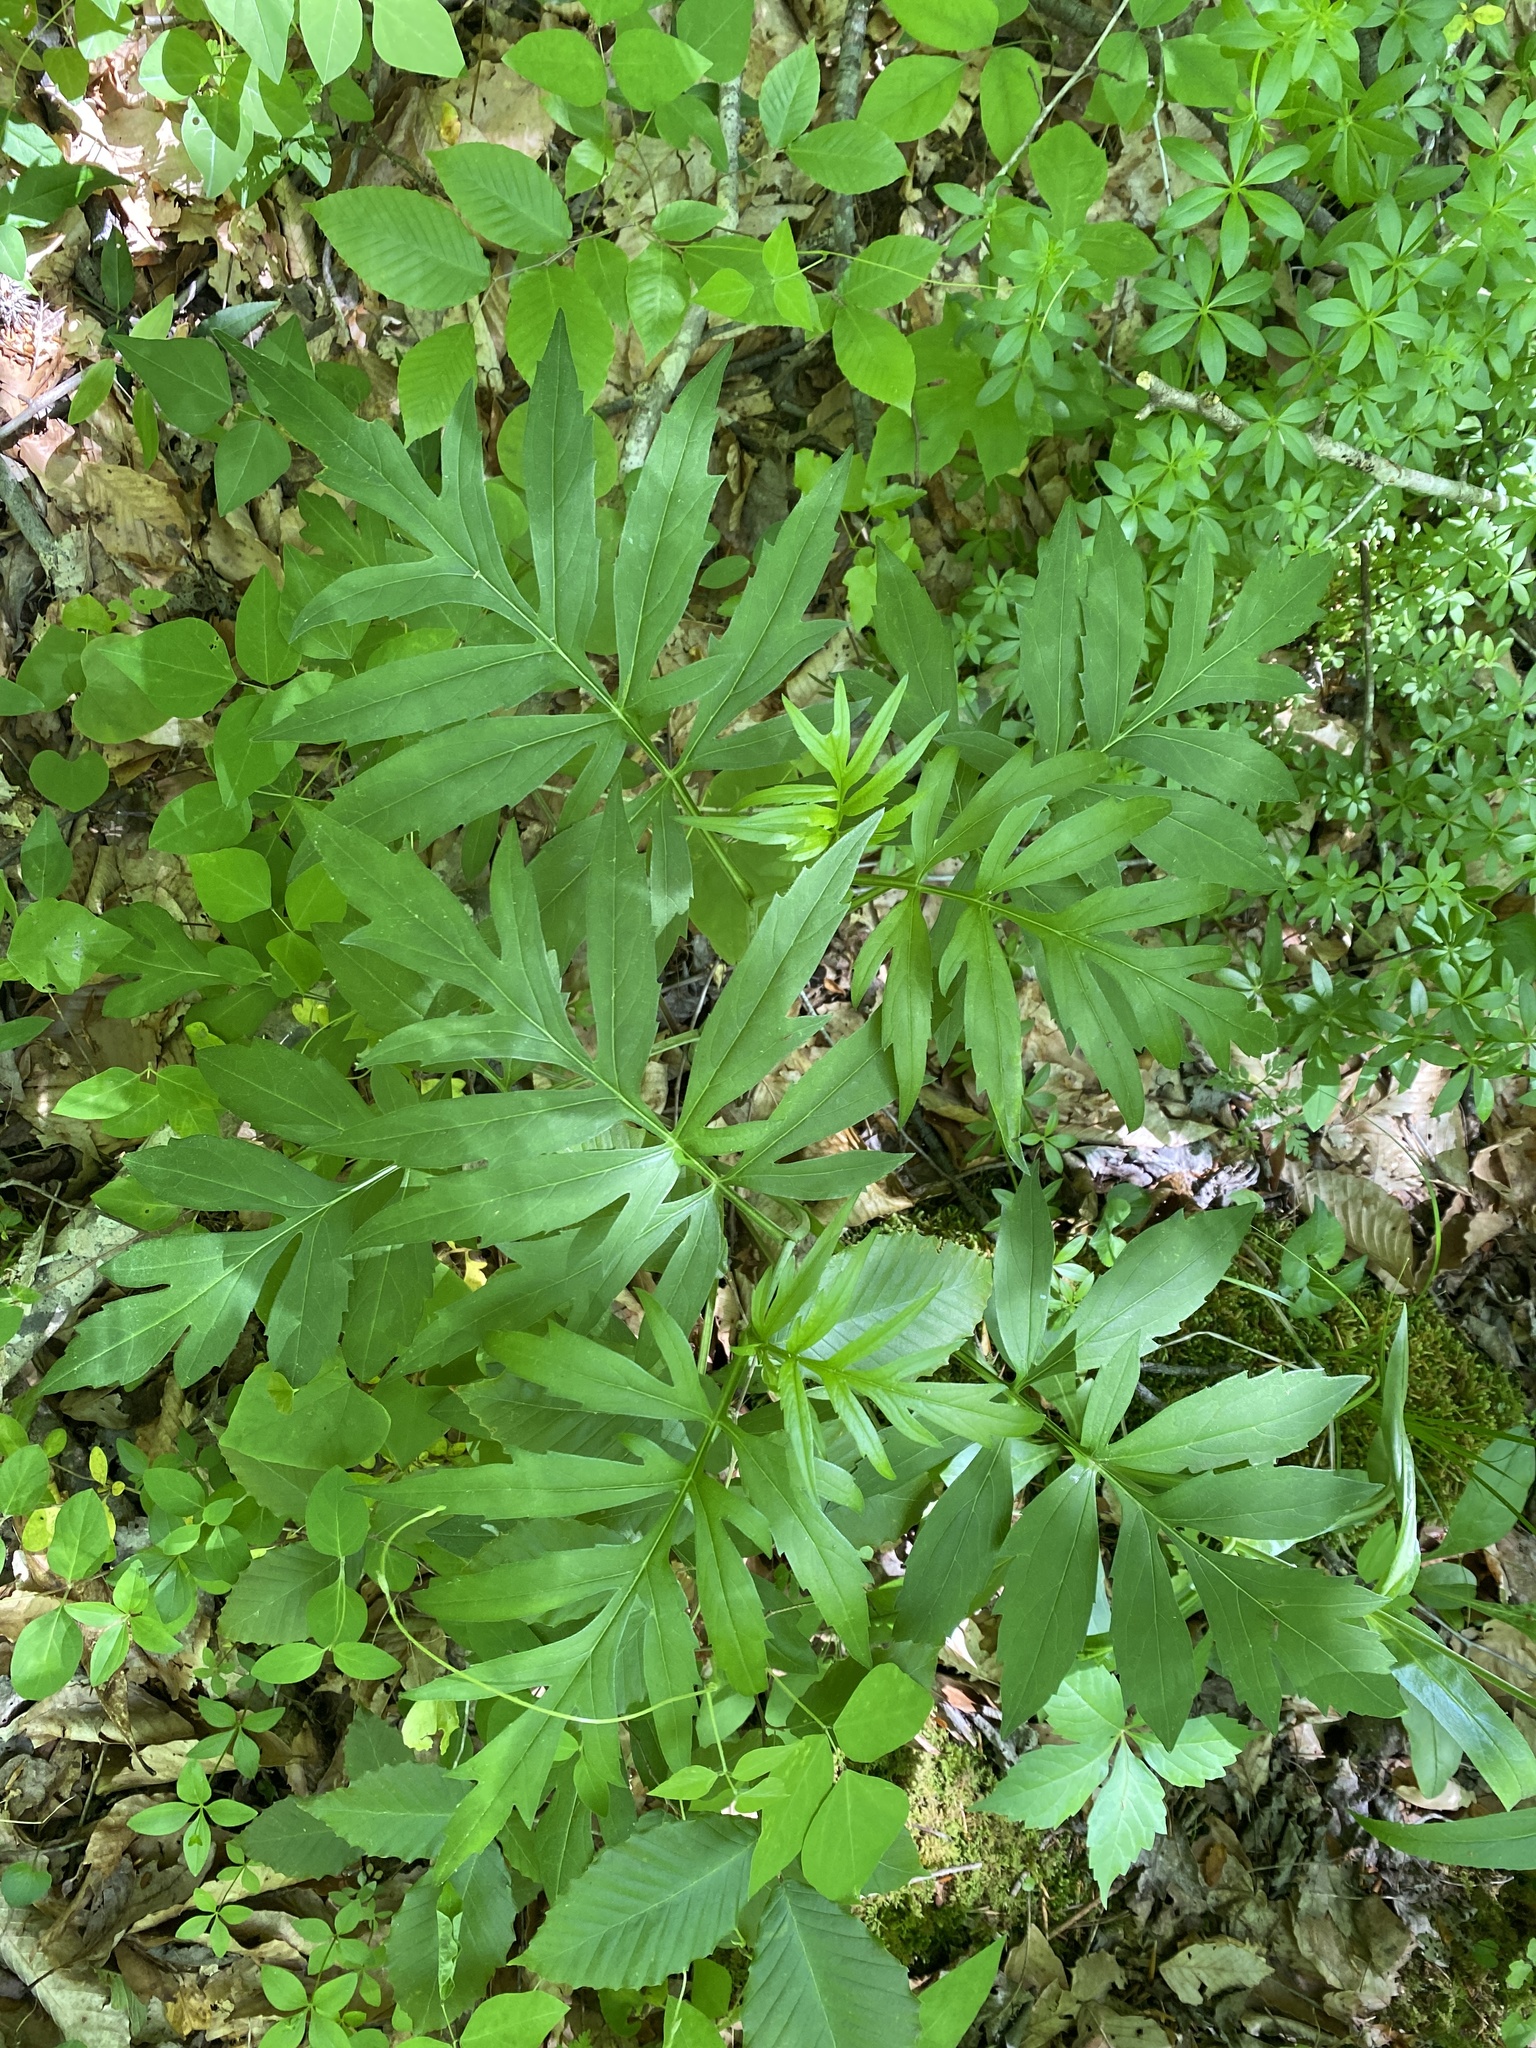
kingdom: Plantae
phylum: Tracheophyta
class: Magnoliopsida
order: Asterales
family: Asteraceae
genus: Rudbeckia
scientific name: Rudbeckia laciniata
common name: Coneflower
